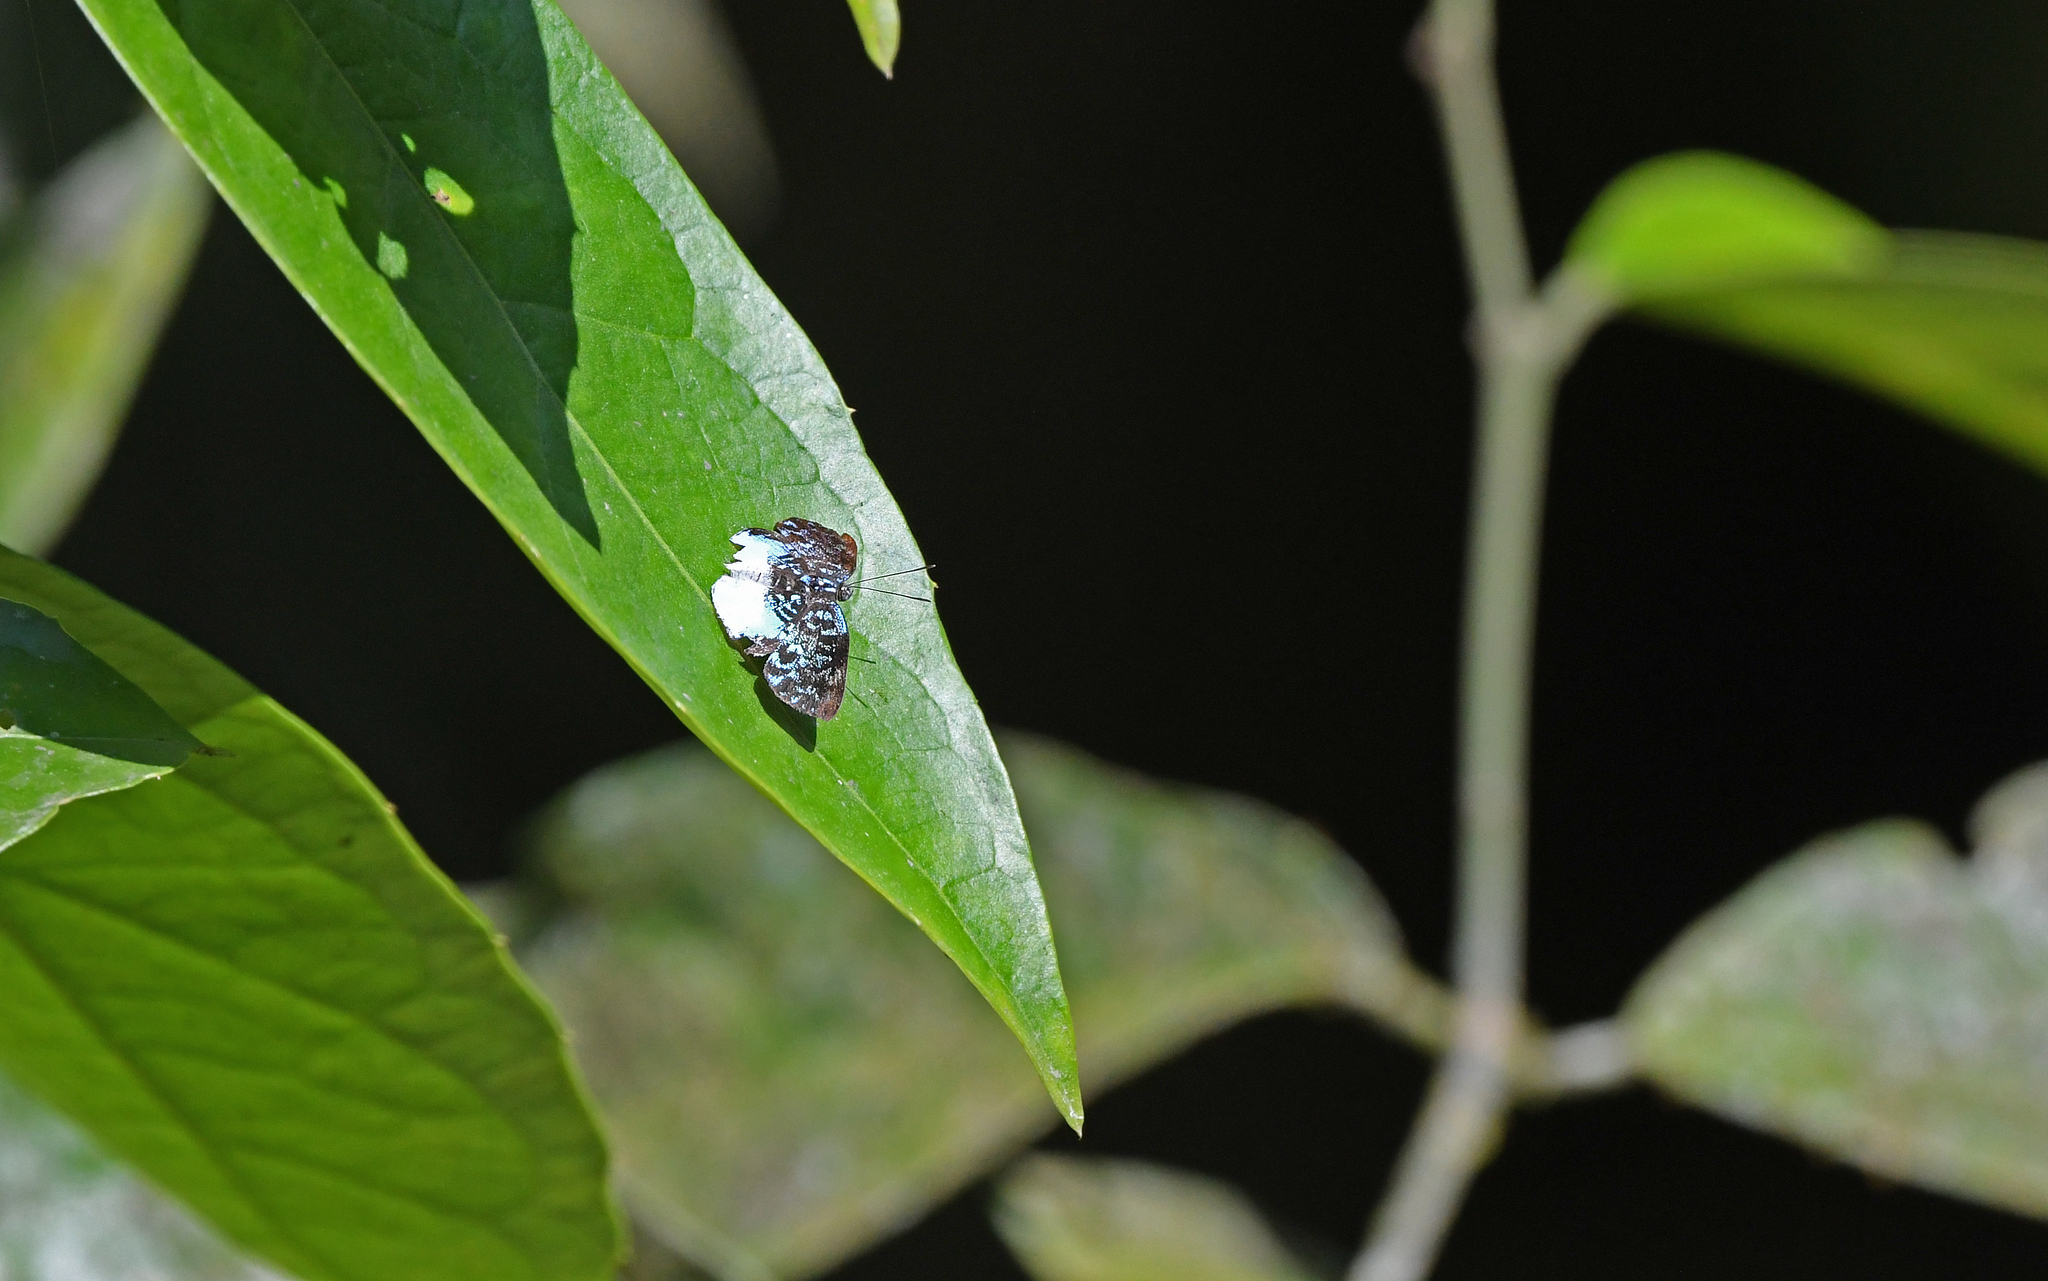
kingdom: Animalia
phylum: Arthropoda
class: Insecta
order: Lepidoptera
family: Riodinidae
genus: Periplacis
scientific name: Periplacis hebrus
